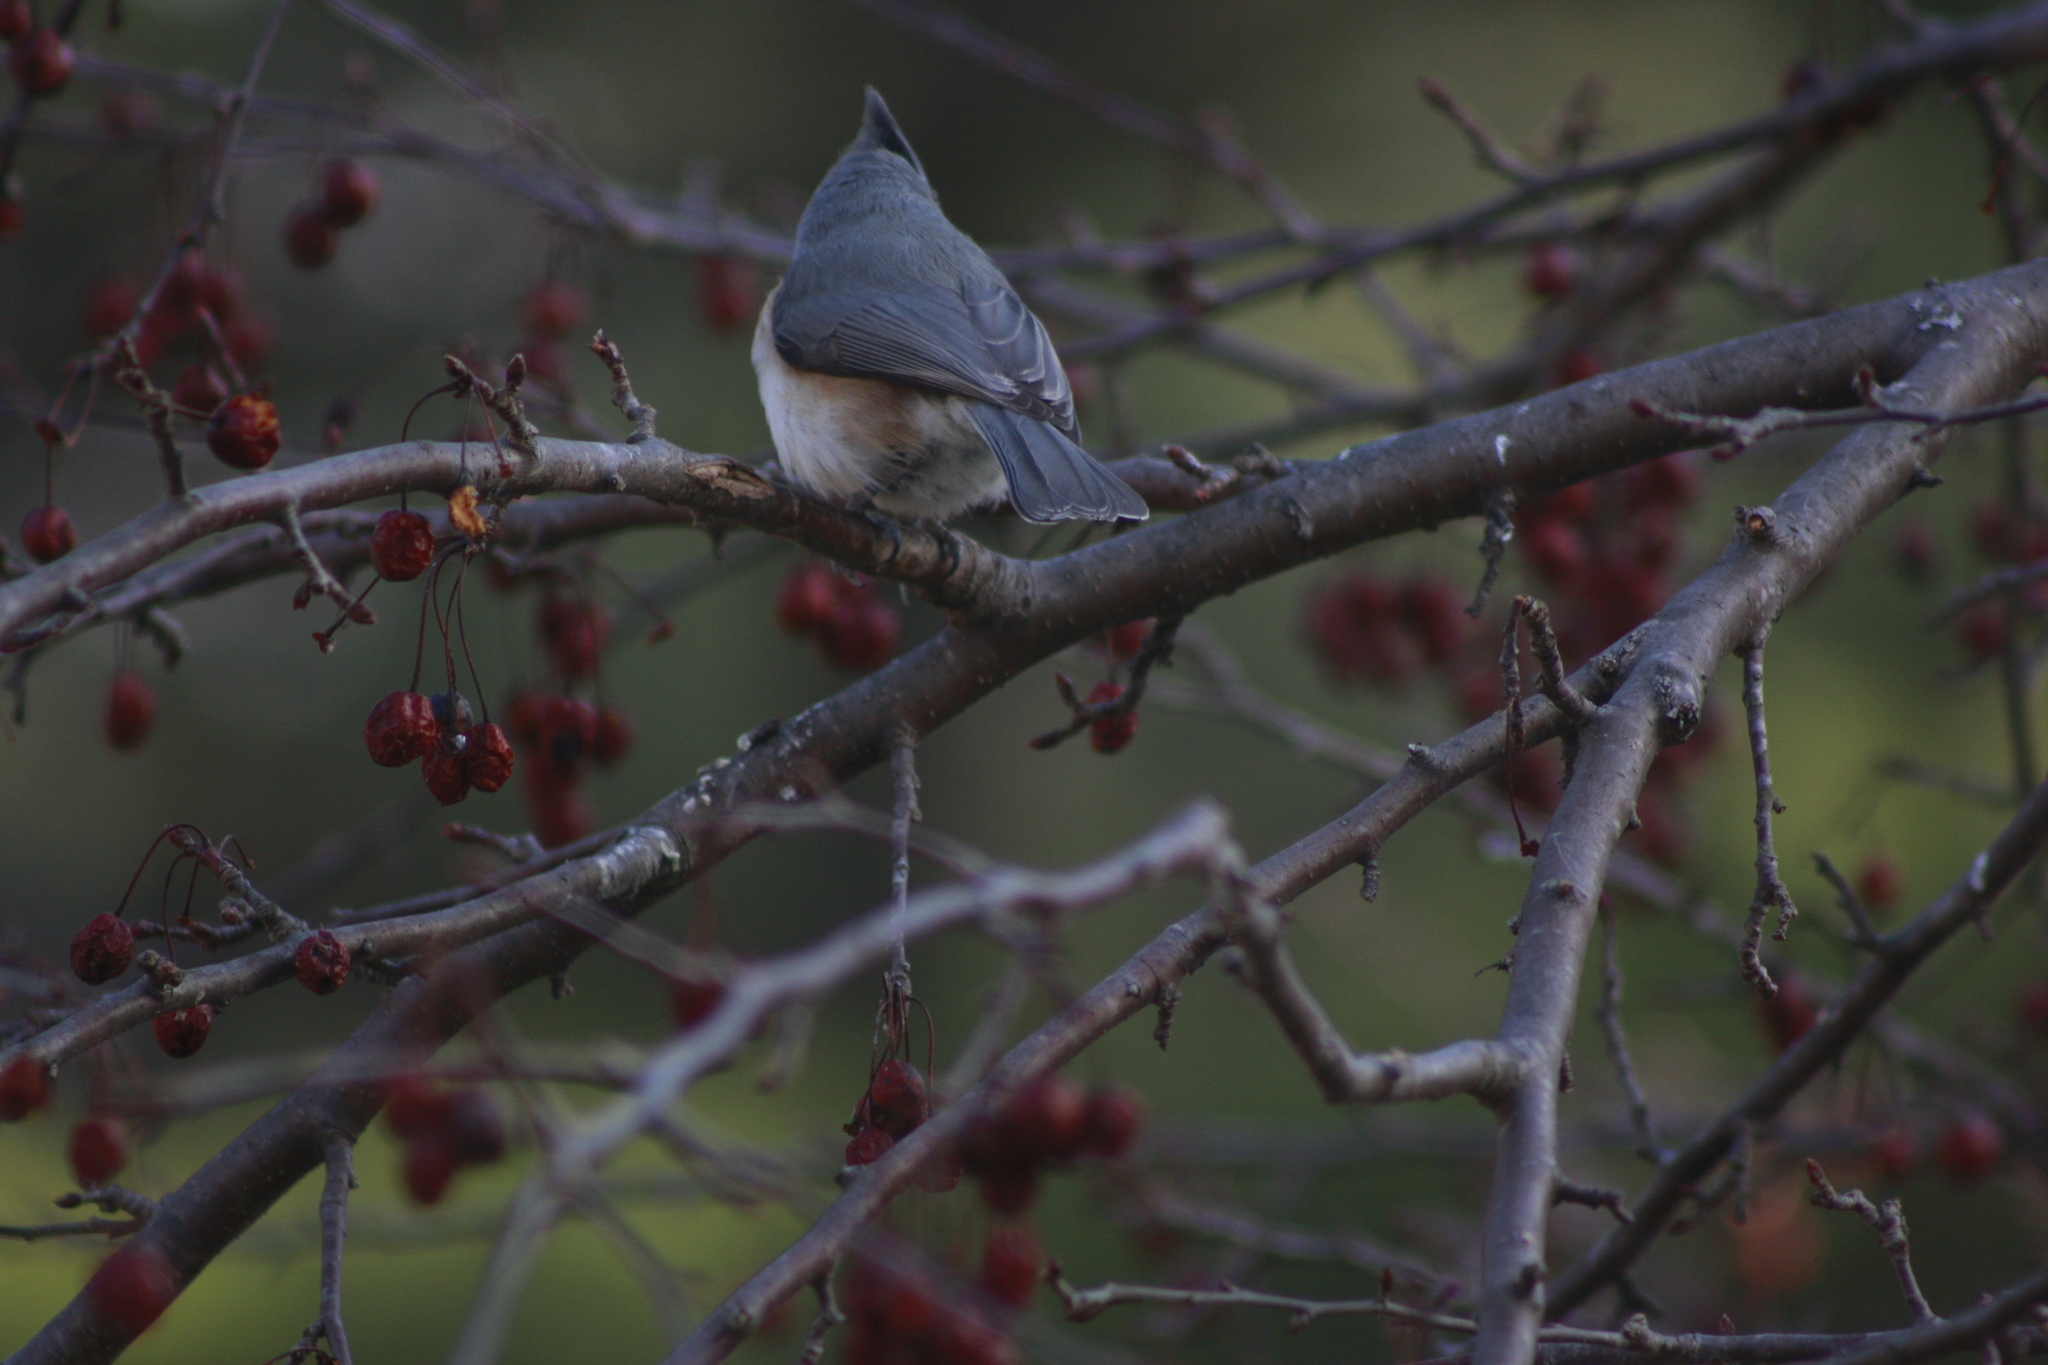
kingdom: Animalia
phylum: Chordata
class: Aves
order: Passeriformes
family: Paridae
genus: Baeolophus
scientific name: Baeolophus bicolor
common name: Tufted titmouse
